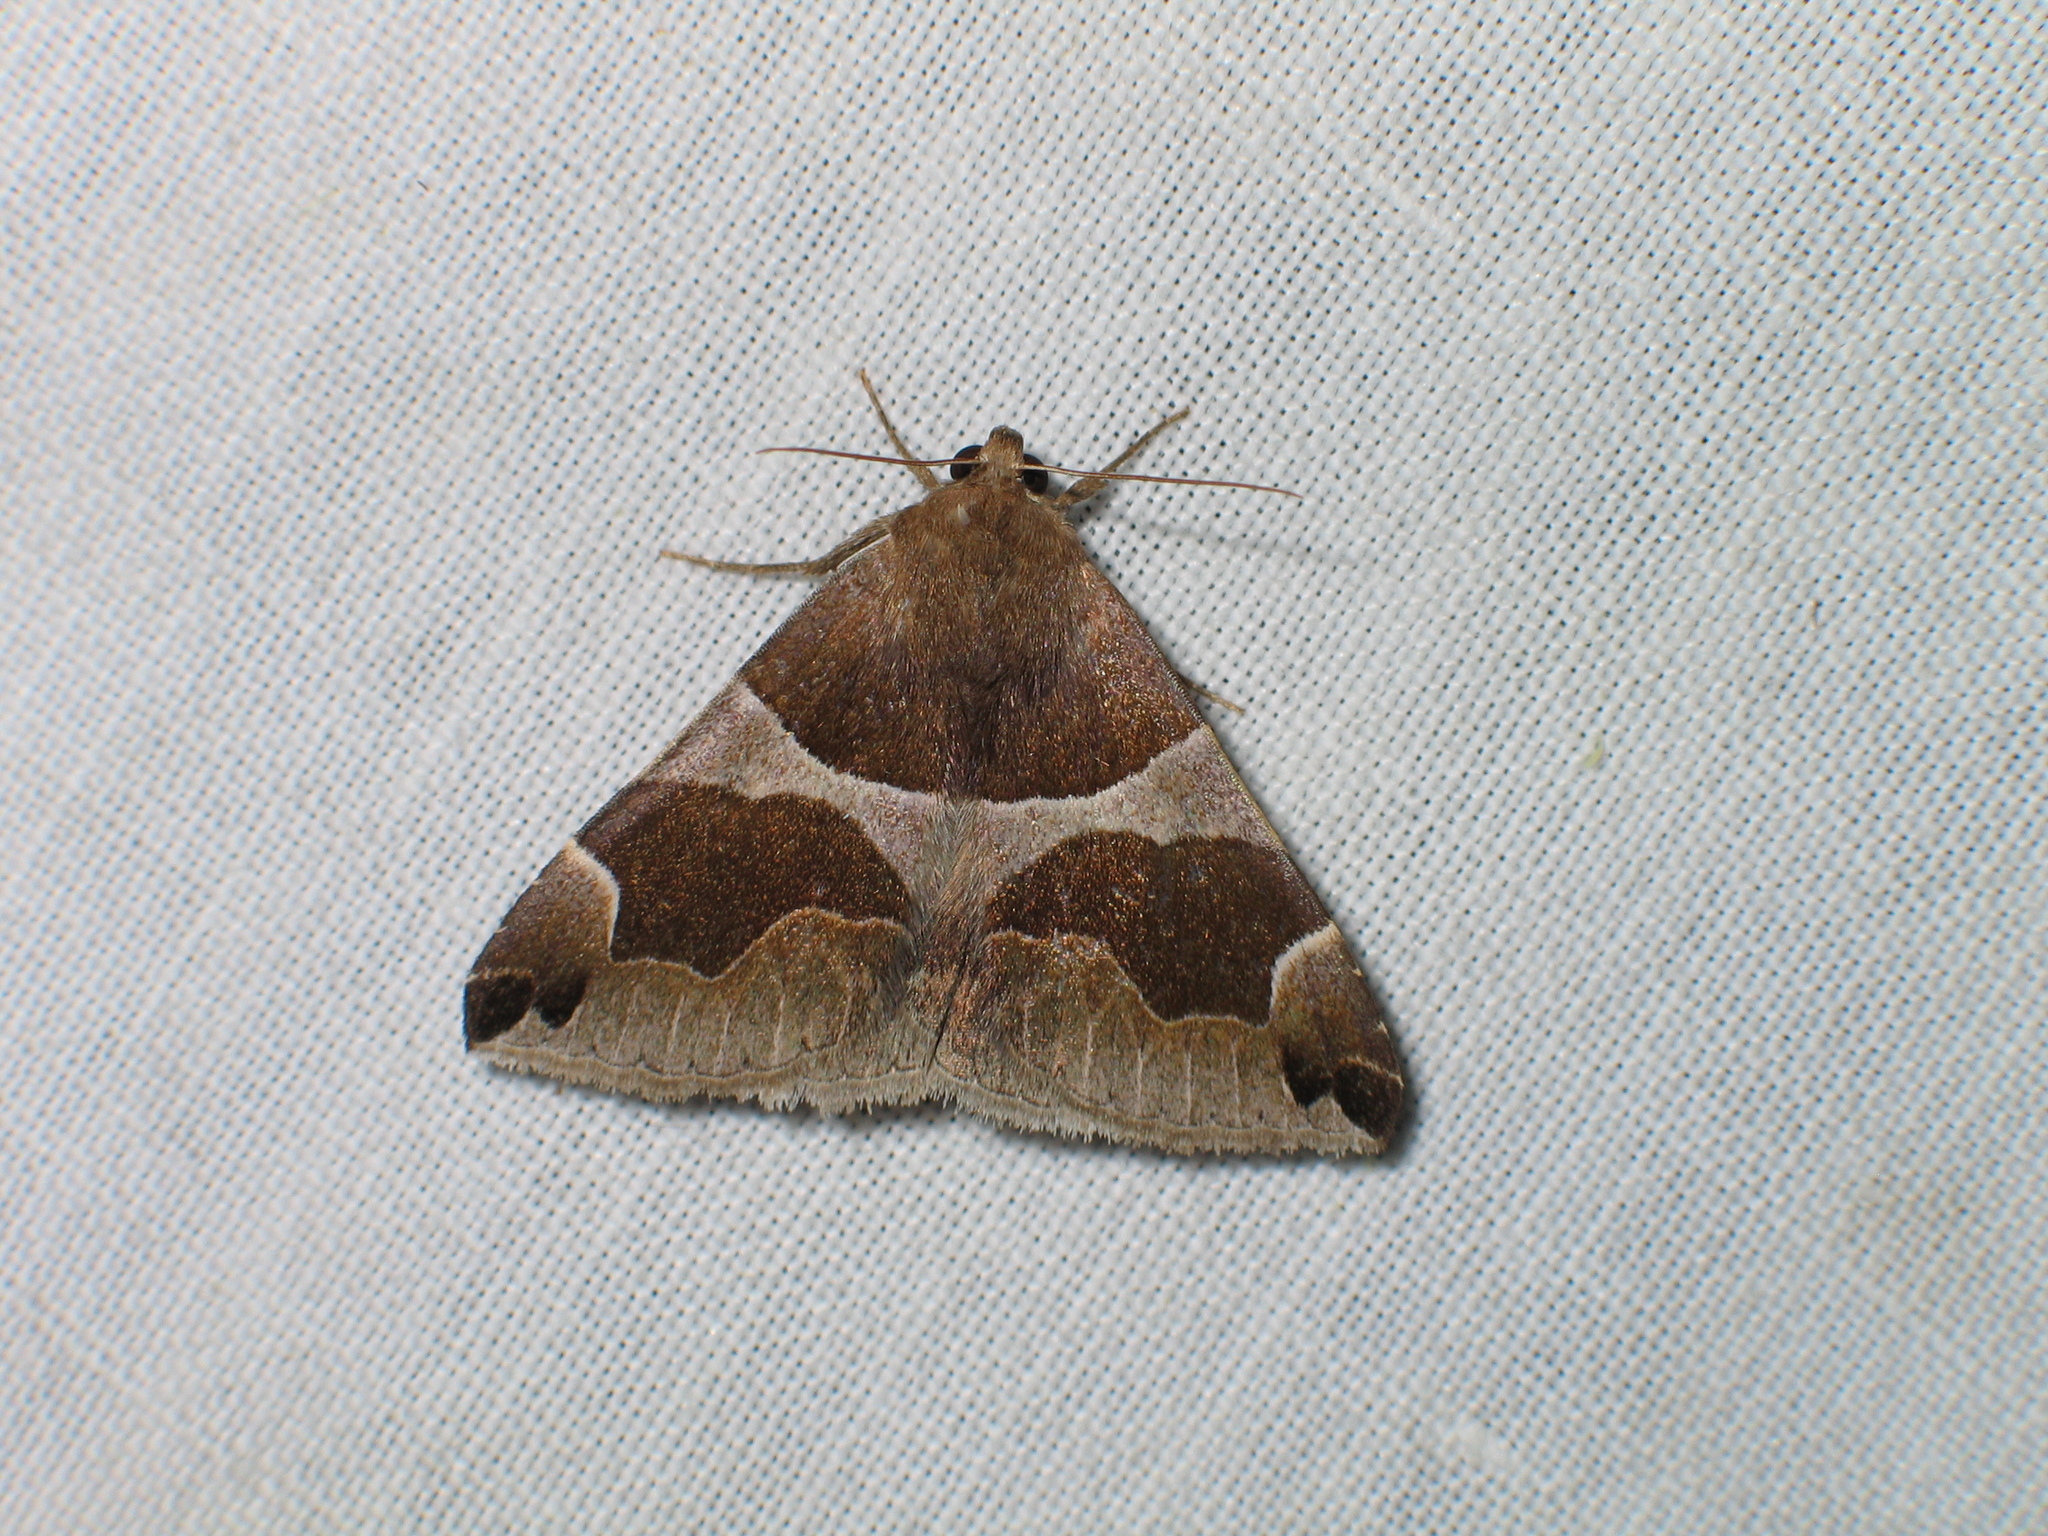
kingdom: Animalia
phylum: Arthropoda
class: Insecta
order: Lepidoptera
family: Erebidae
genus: Dysgonia
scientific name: Dysgonia algira
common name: Passenger
